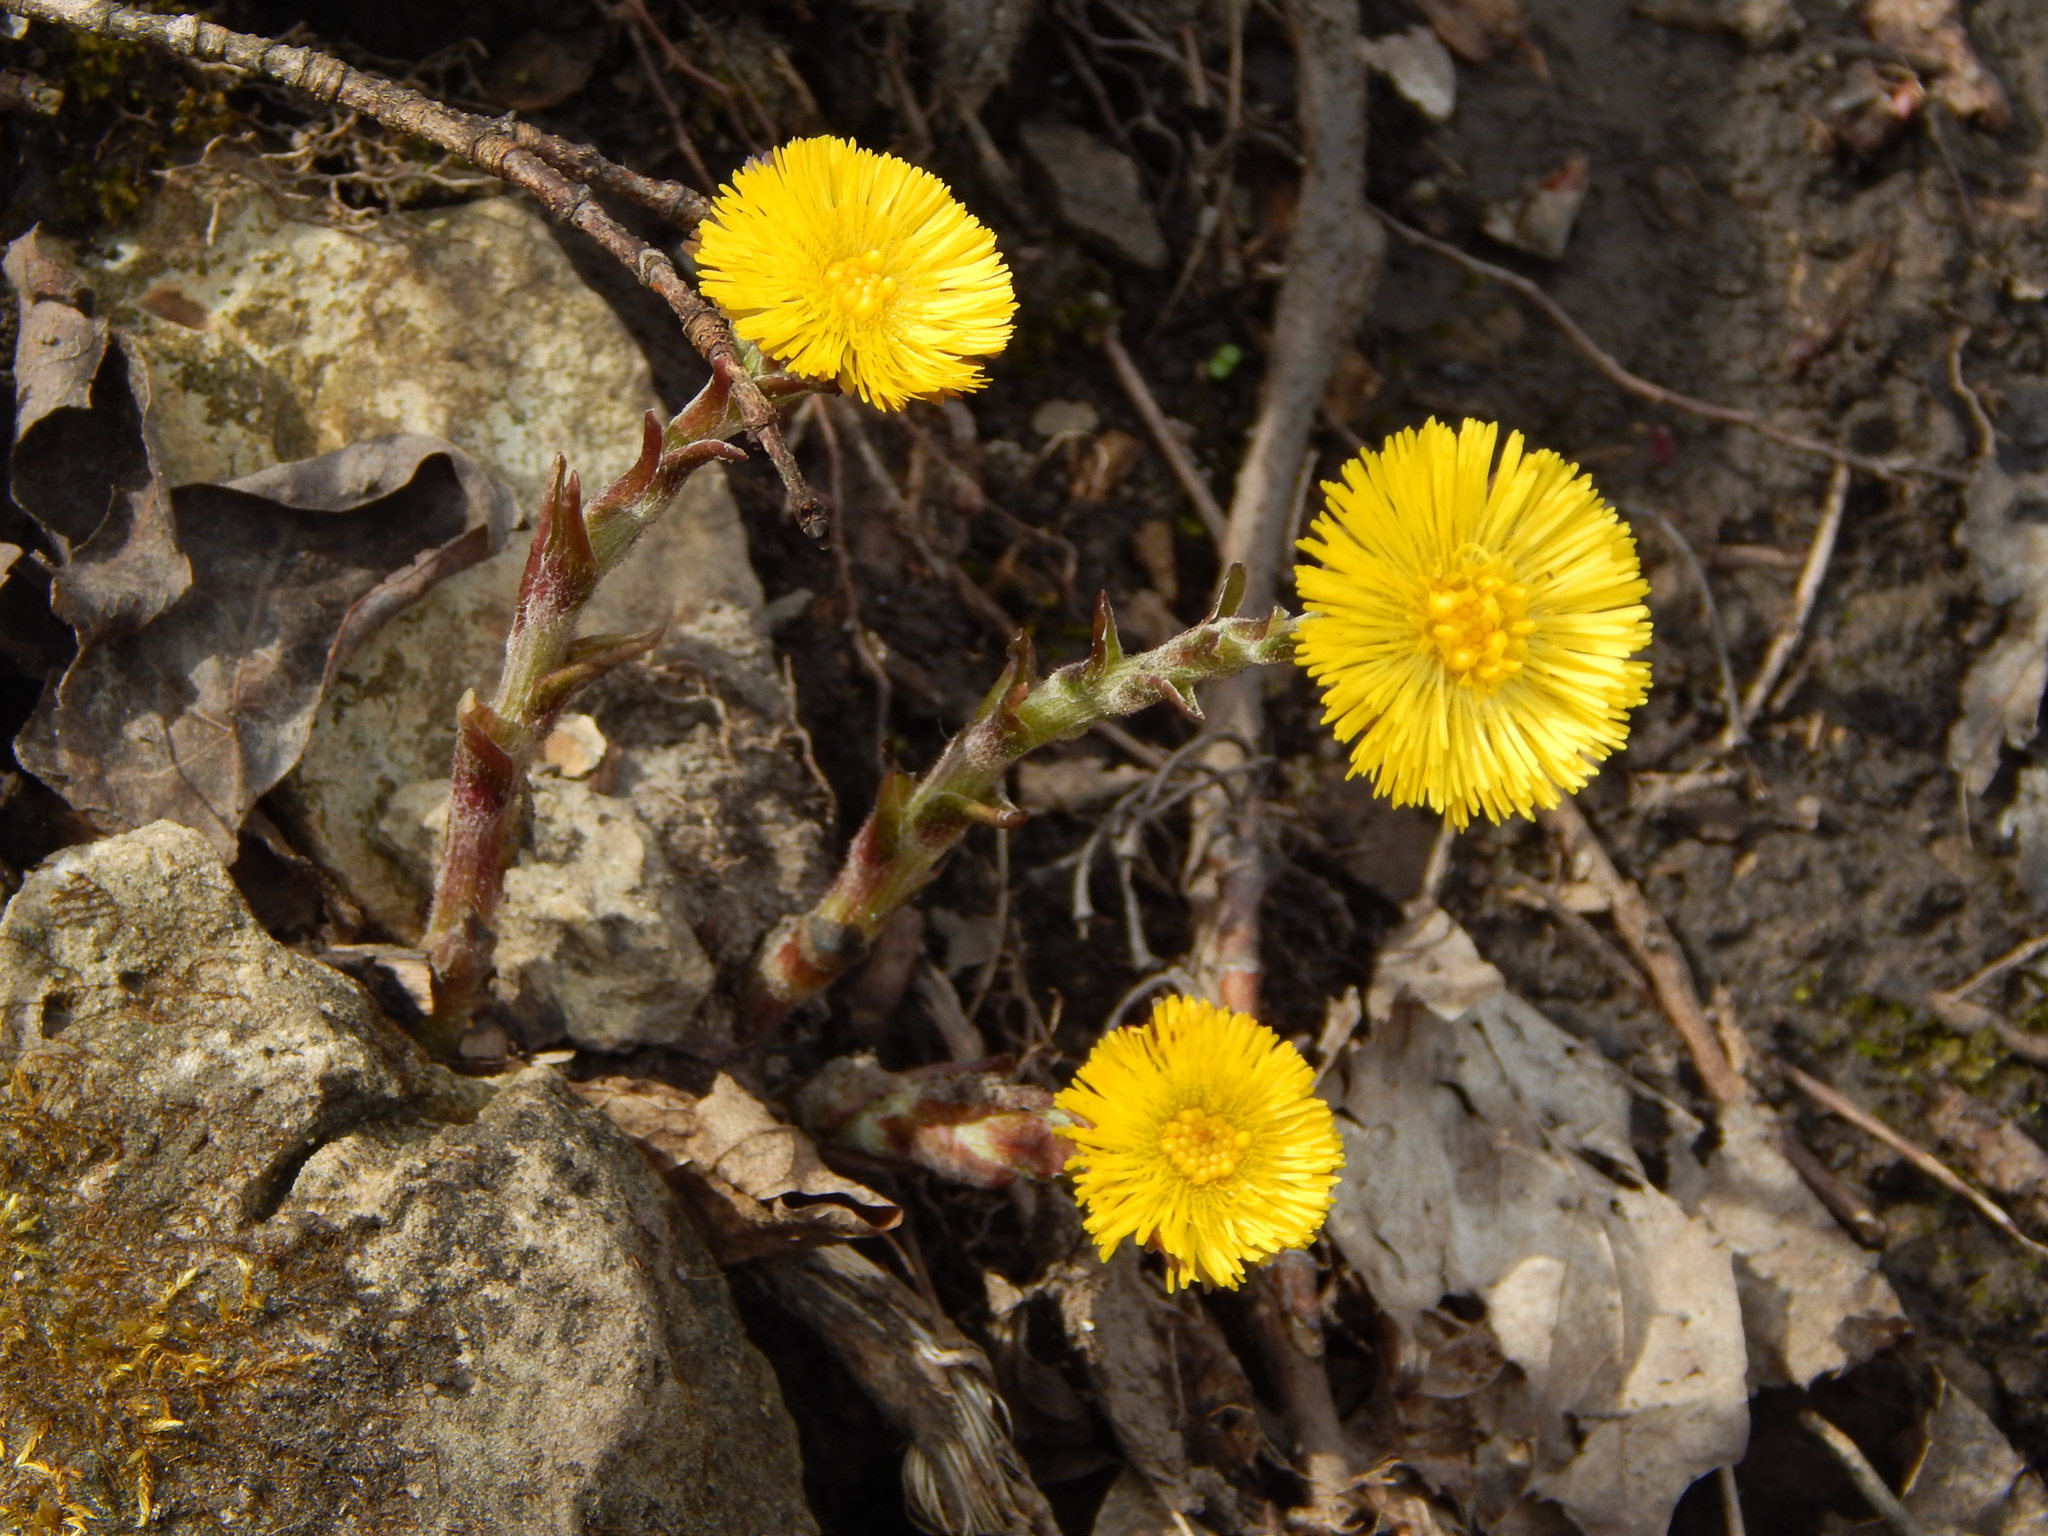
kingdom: Plantae
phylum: Tracheophyta
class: Magnoliopsida
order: Asterales
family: Asteraceae
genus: Tussilago
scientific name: Tussilago farfara
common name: Coltsfoot
